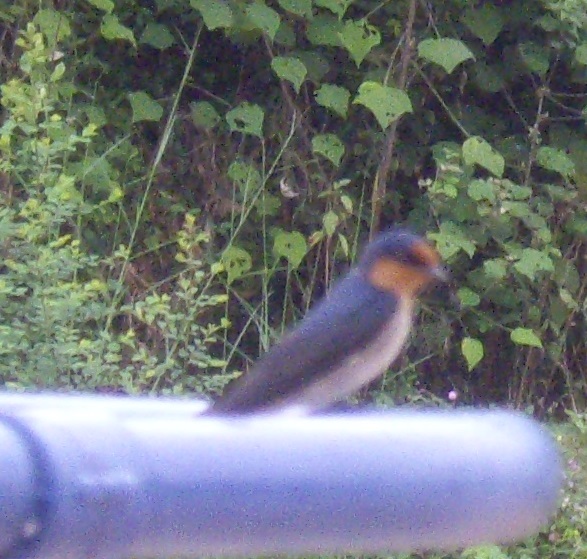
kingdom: Animalia
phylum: Chordata
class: Aves
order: Passeriformes
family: Hirundinidae
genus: Hirundo
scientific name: Hirundo tahitica
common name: Pacific swallow
